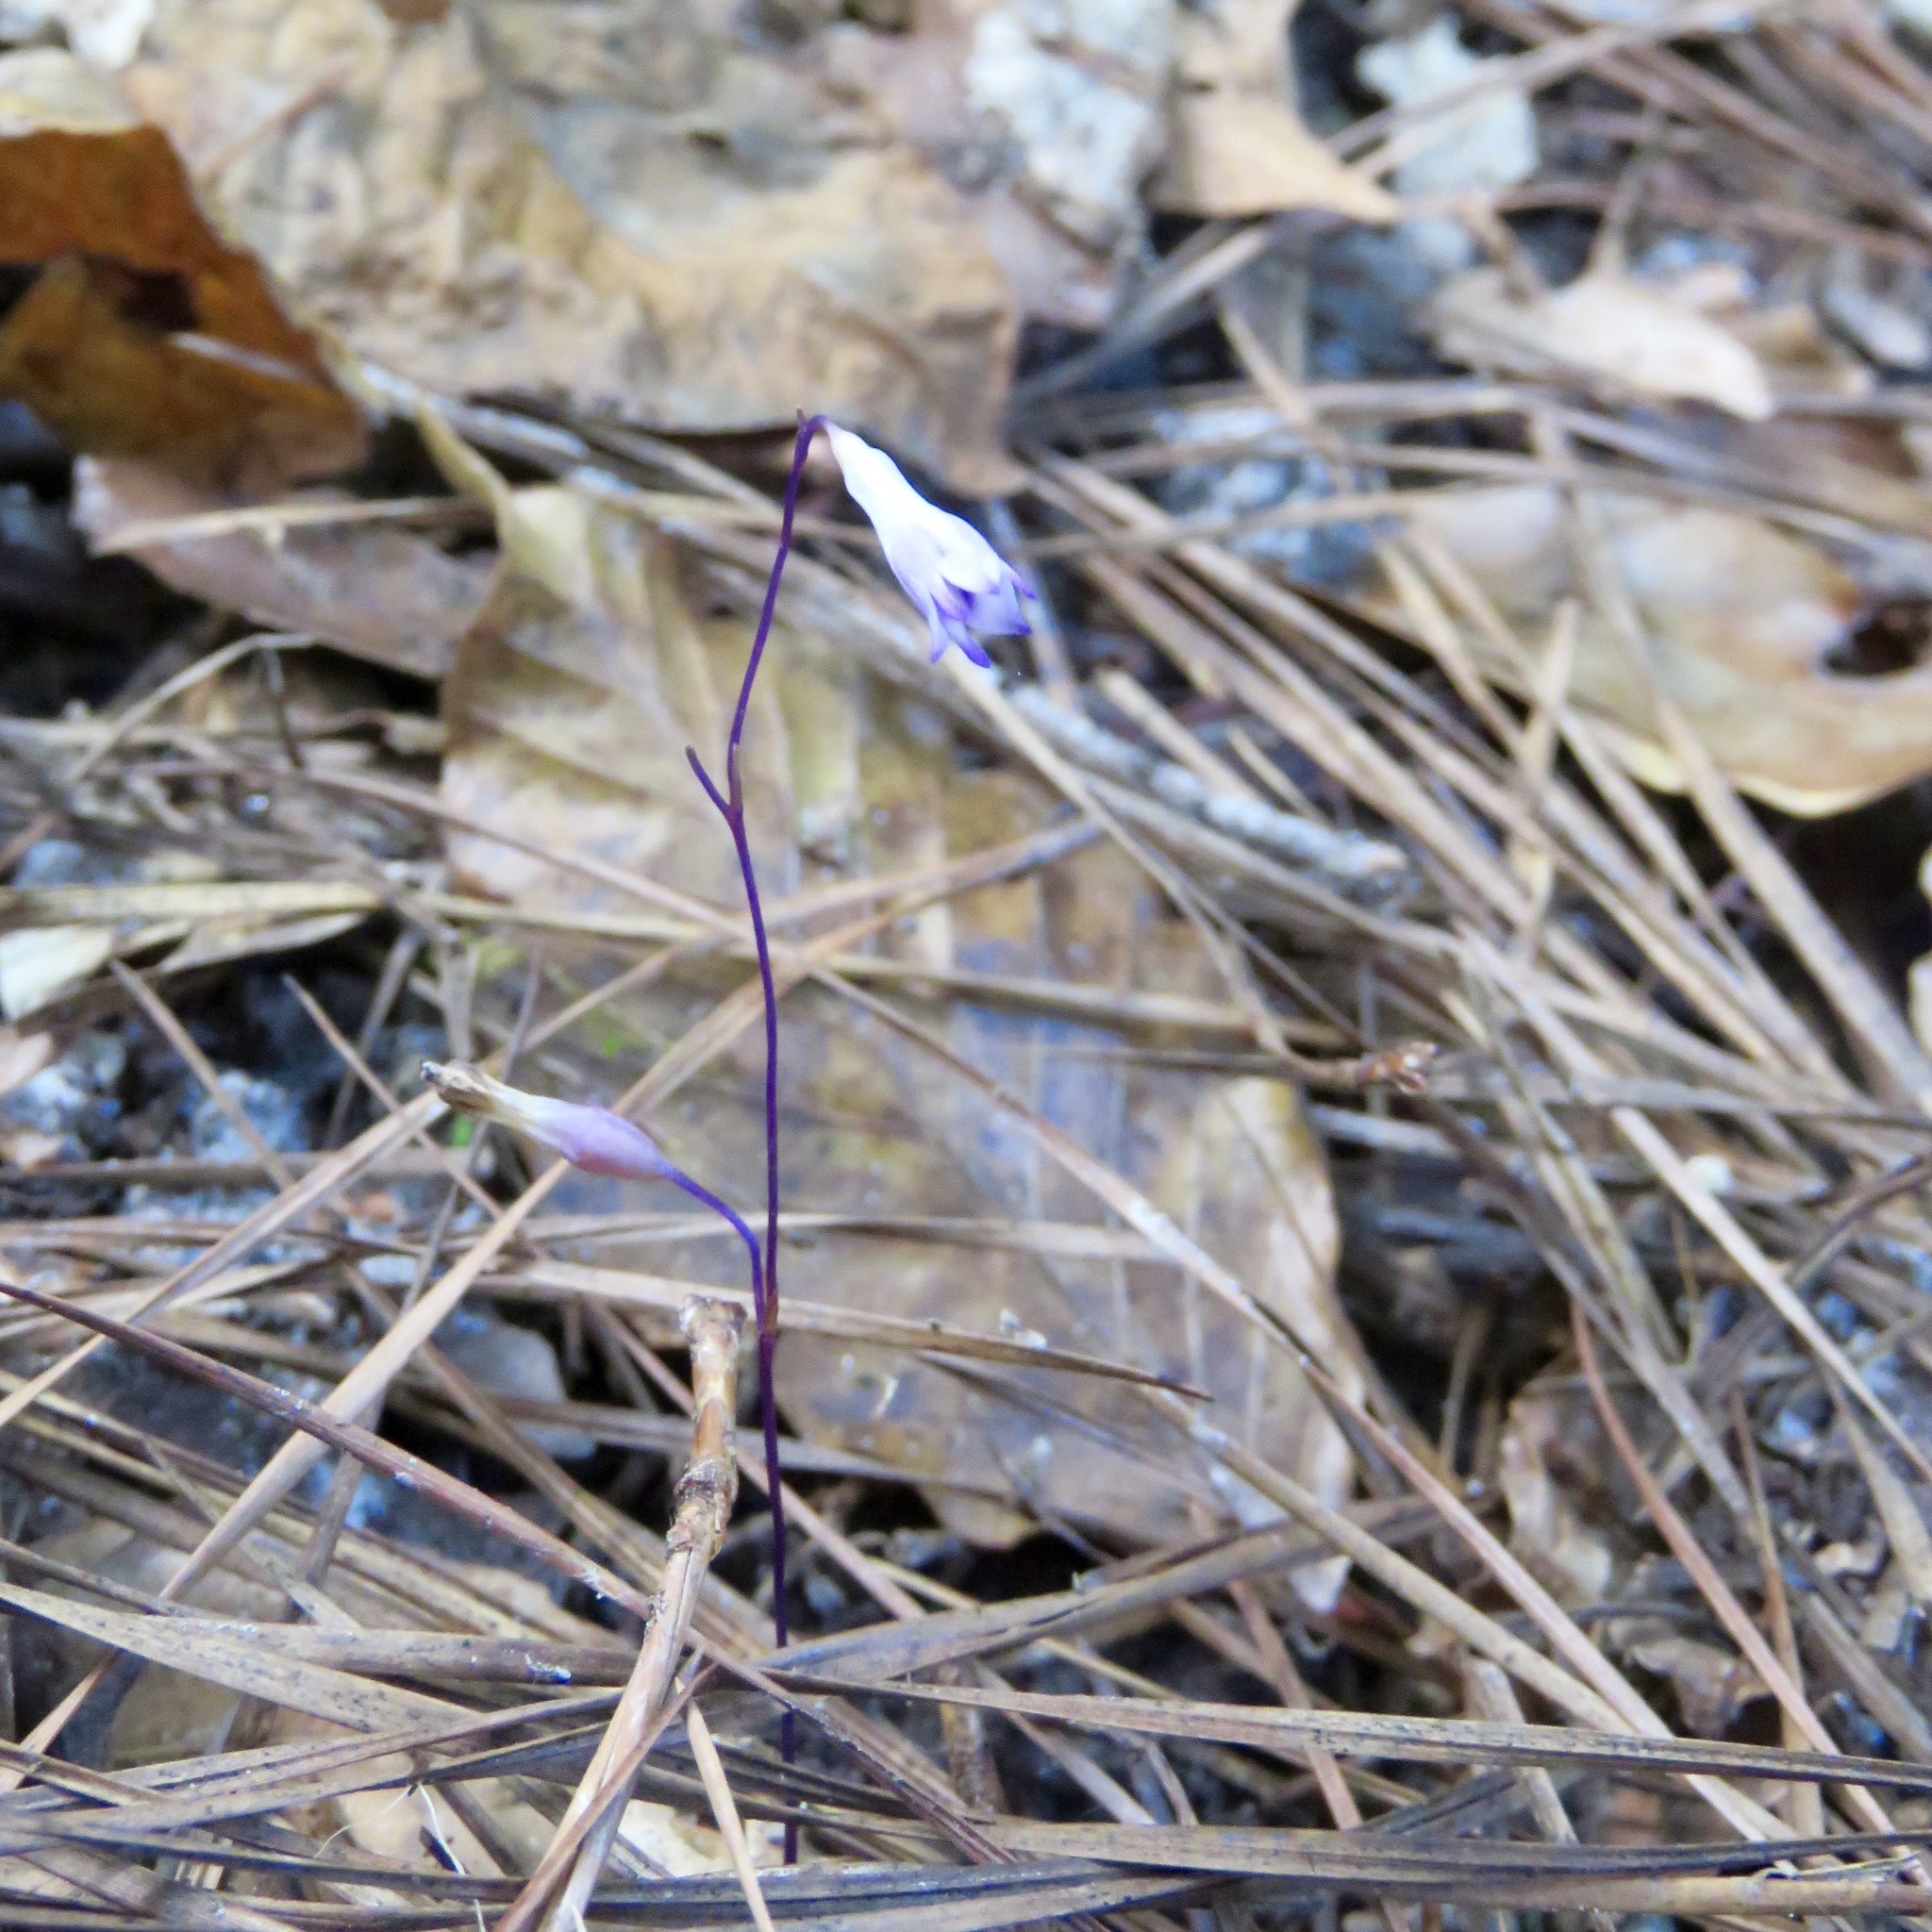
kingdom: Plantae
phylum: Tracheophyta
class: Liliopsida
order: Dioscoreales
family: Burmanniaceae
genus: Apteria
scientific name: Apteria aphylla
